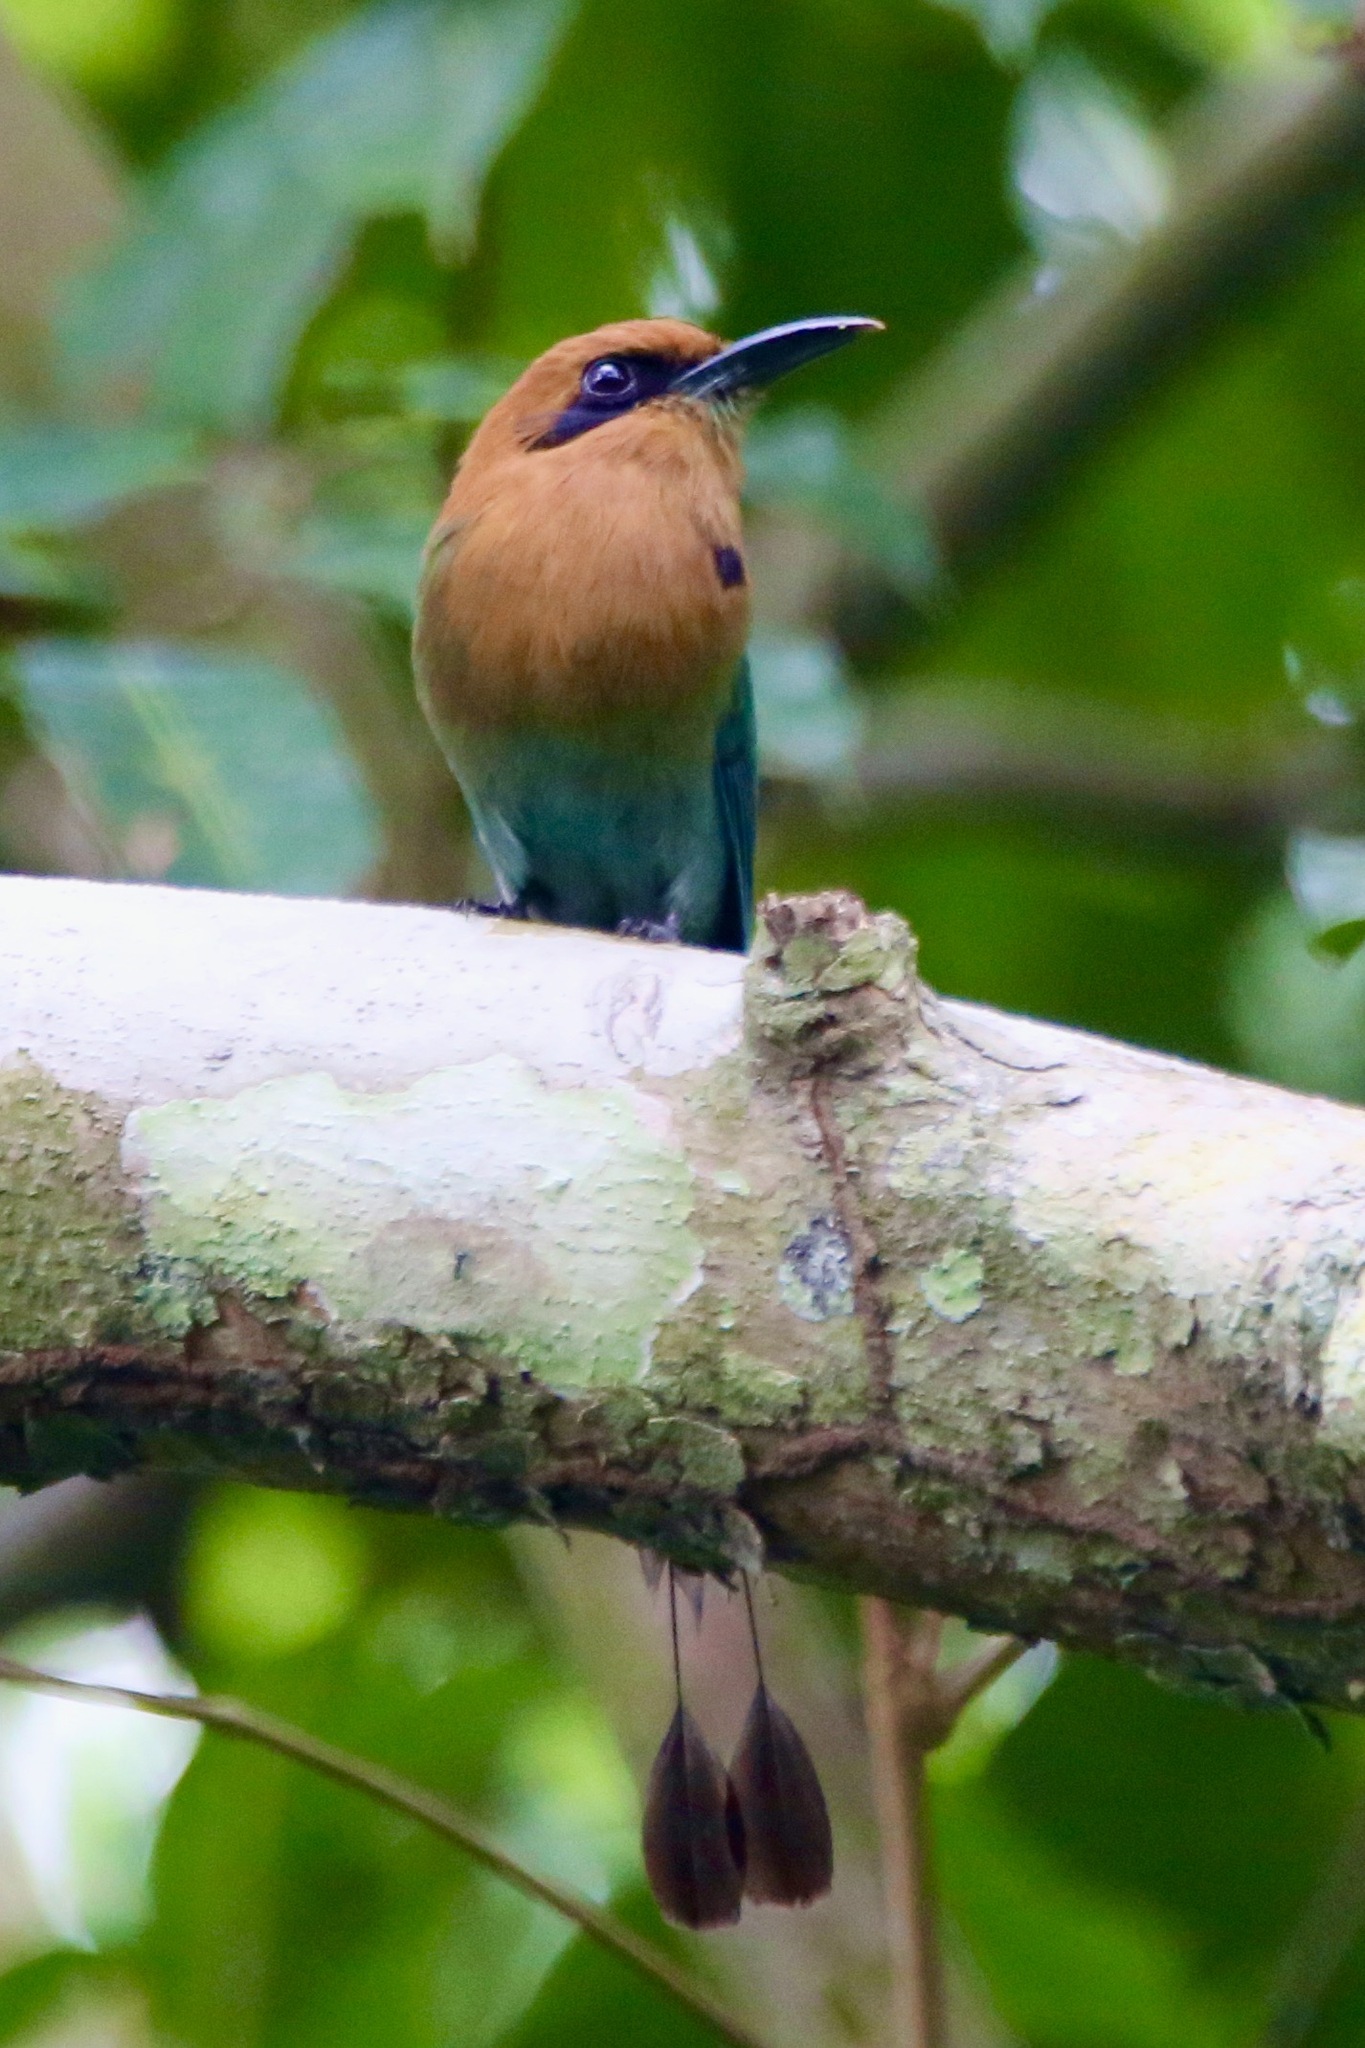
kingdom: Animalia
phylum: Chordata
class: Aves
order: Coraciiformes
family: Momotidae
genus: Electron
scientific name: Electron platyrhynchum
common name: Broad-billed motmot
